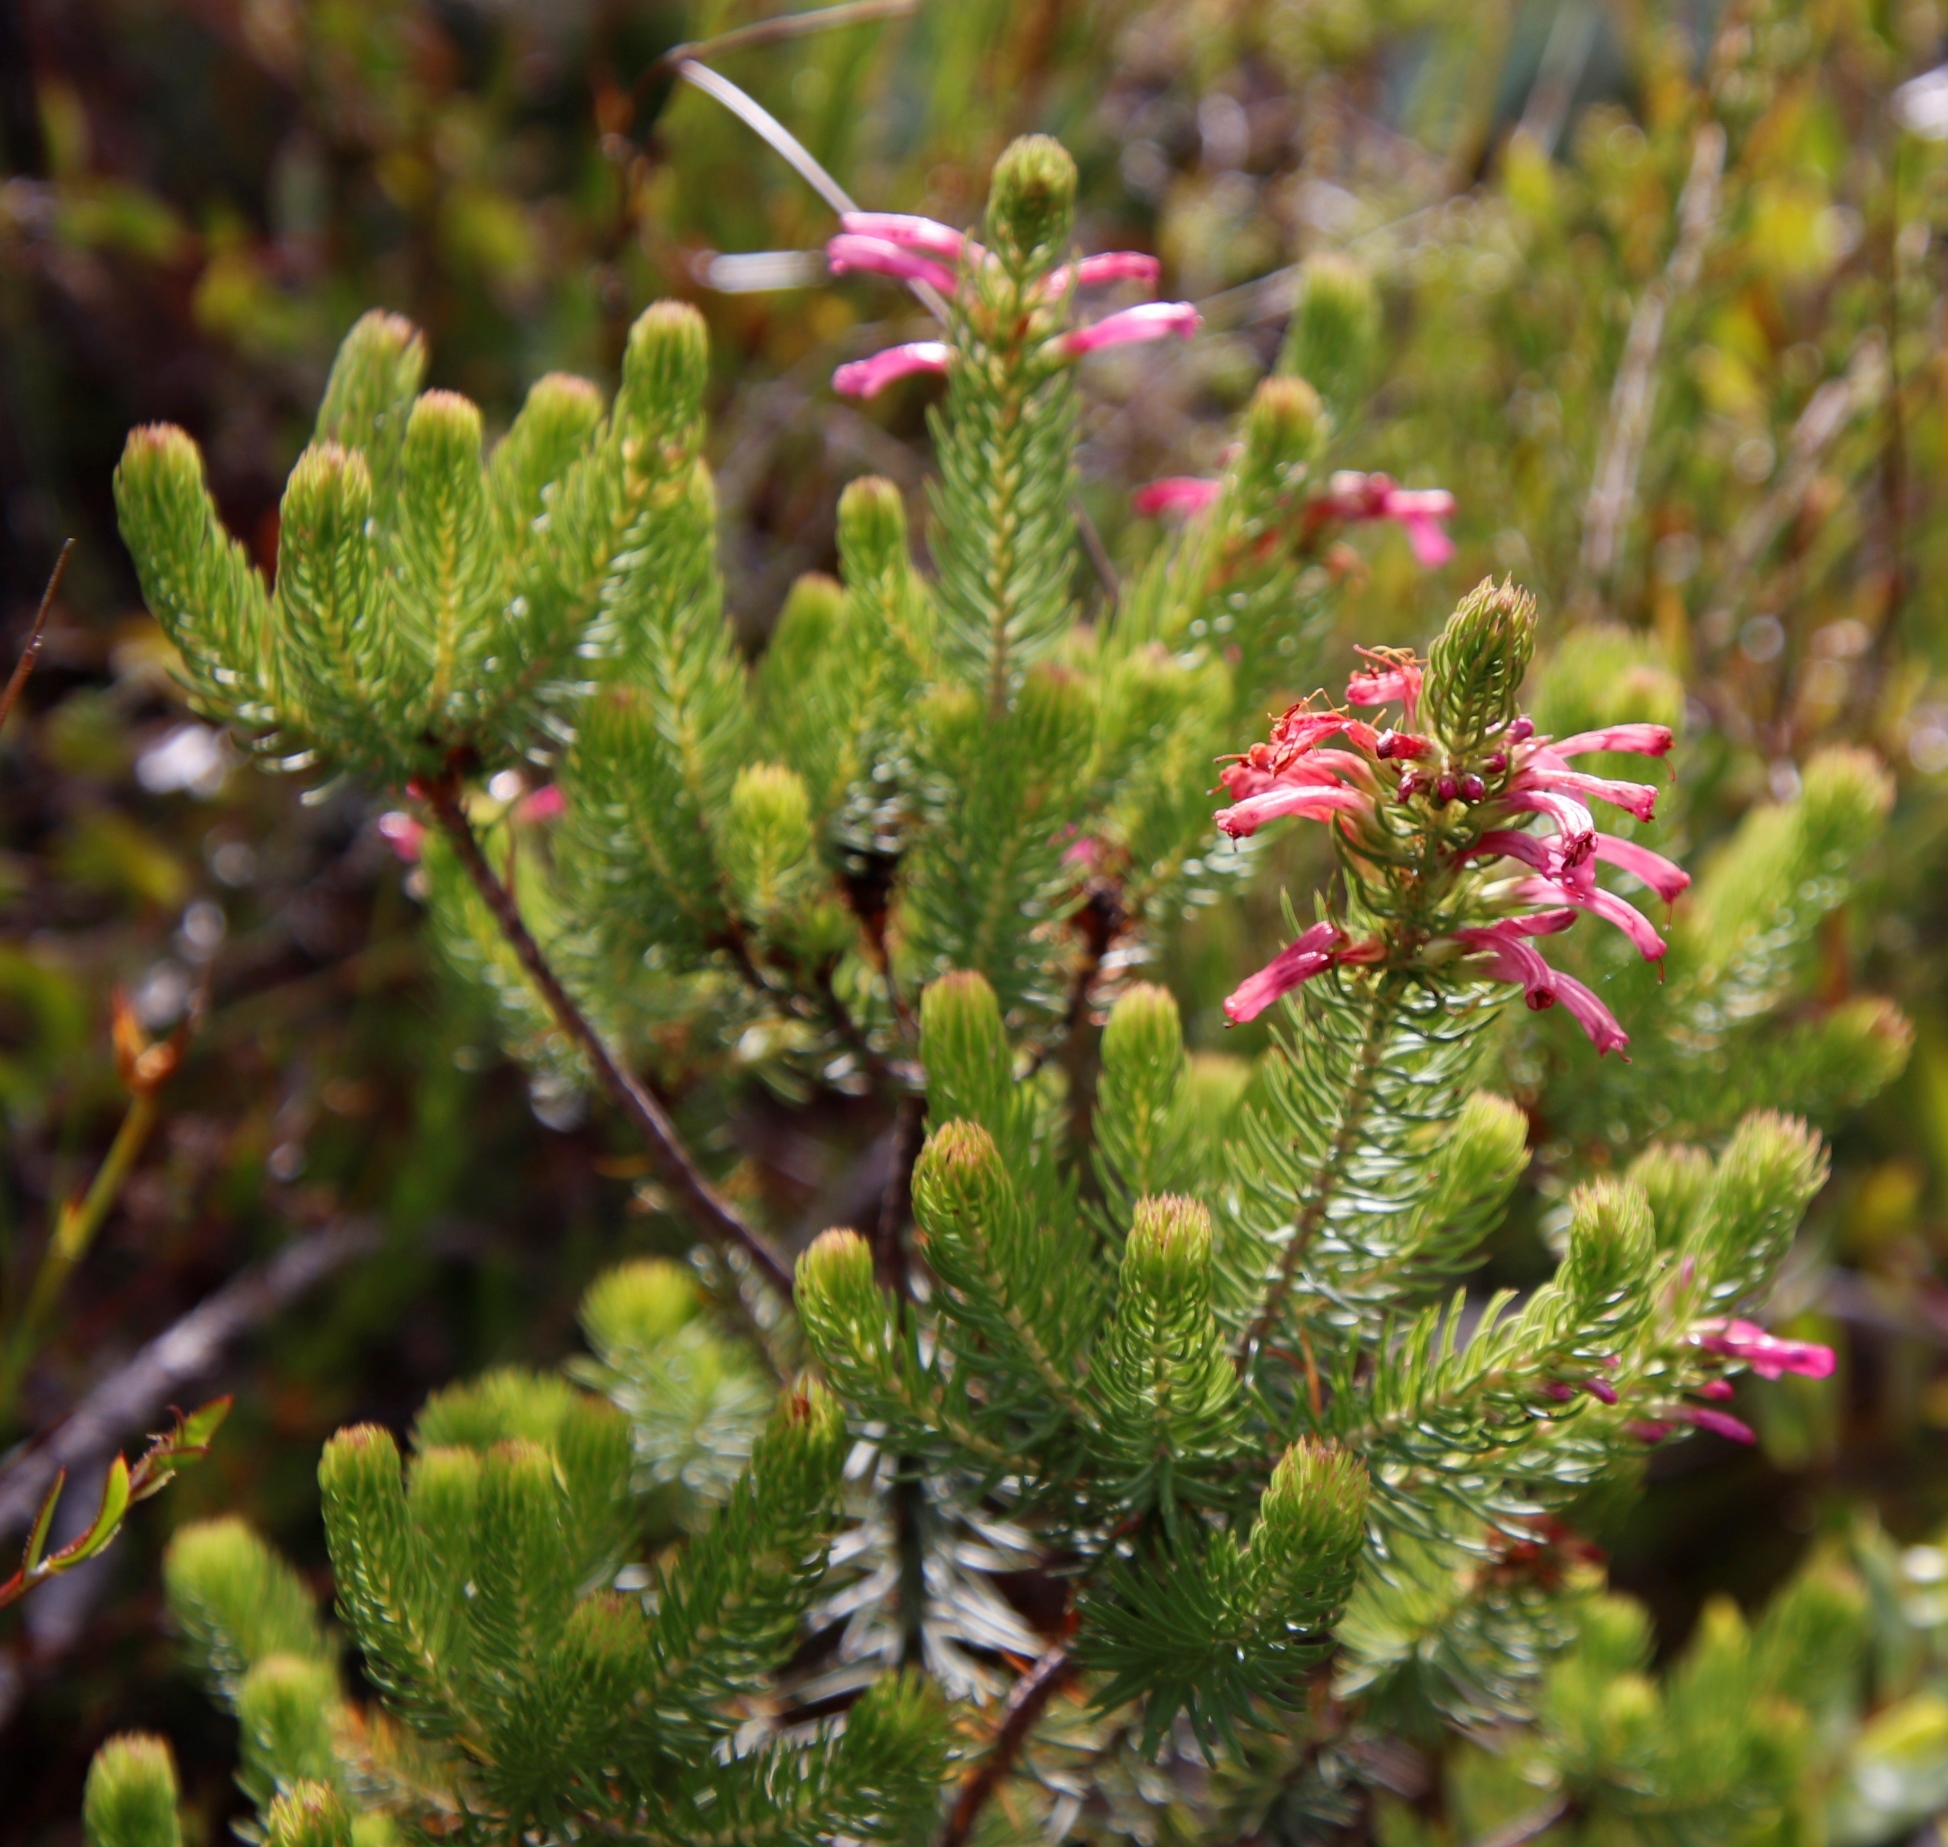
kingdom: Plantae
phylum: Tracheophyta
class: Magnoliopsida
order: Ericales
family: Ericaceae
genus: Erica
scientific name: Erica abietina
